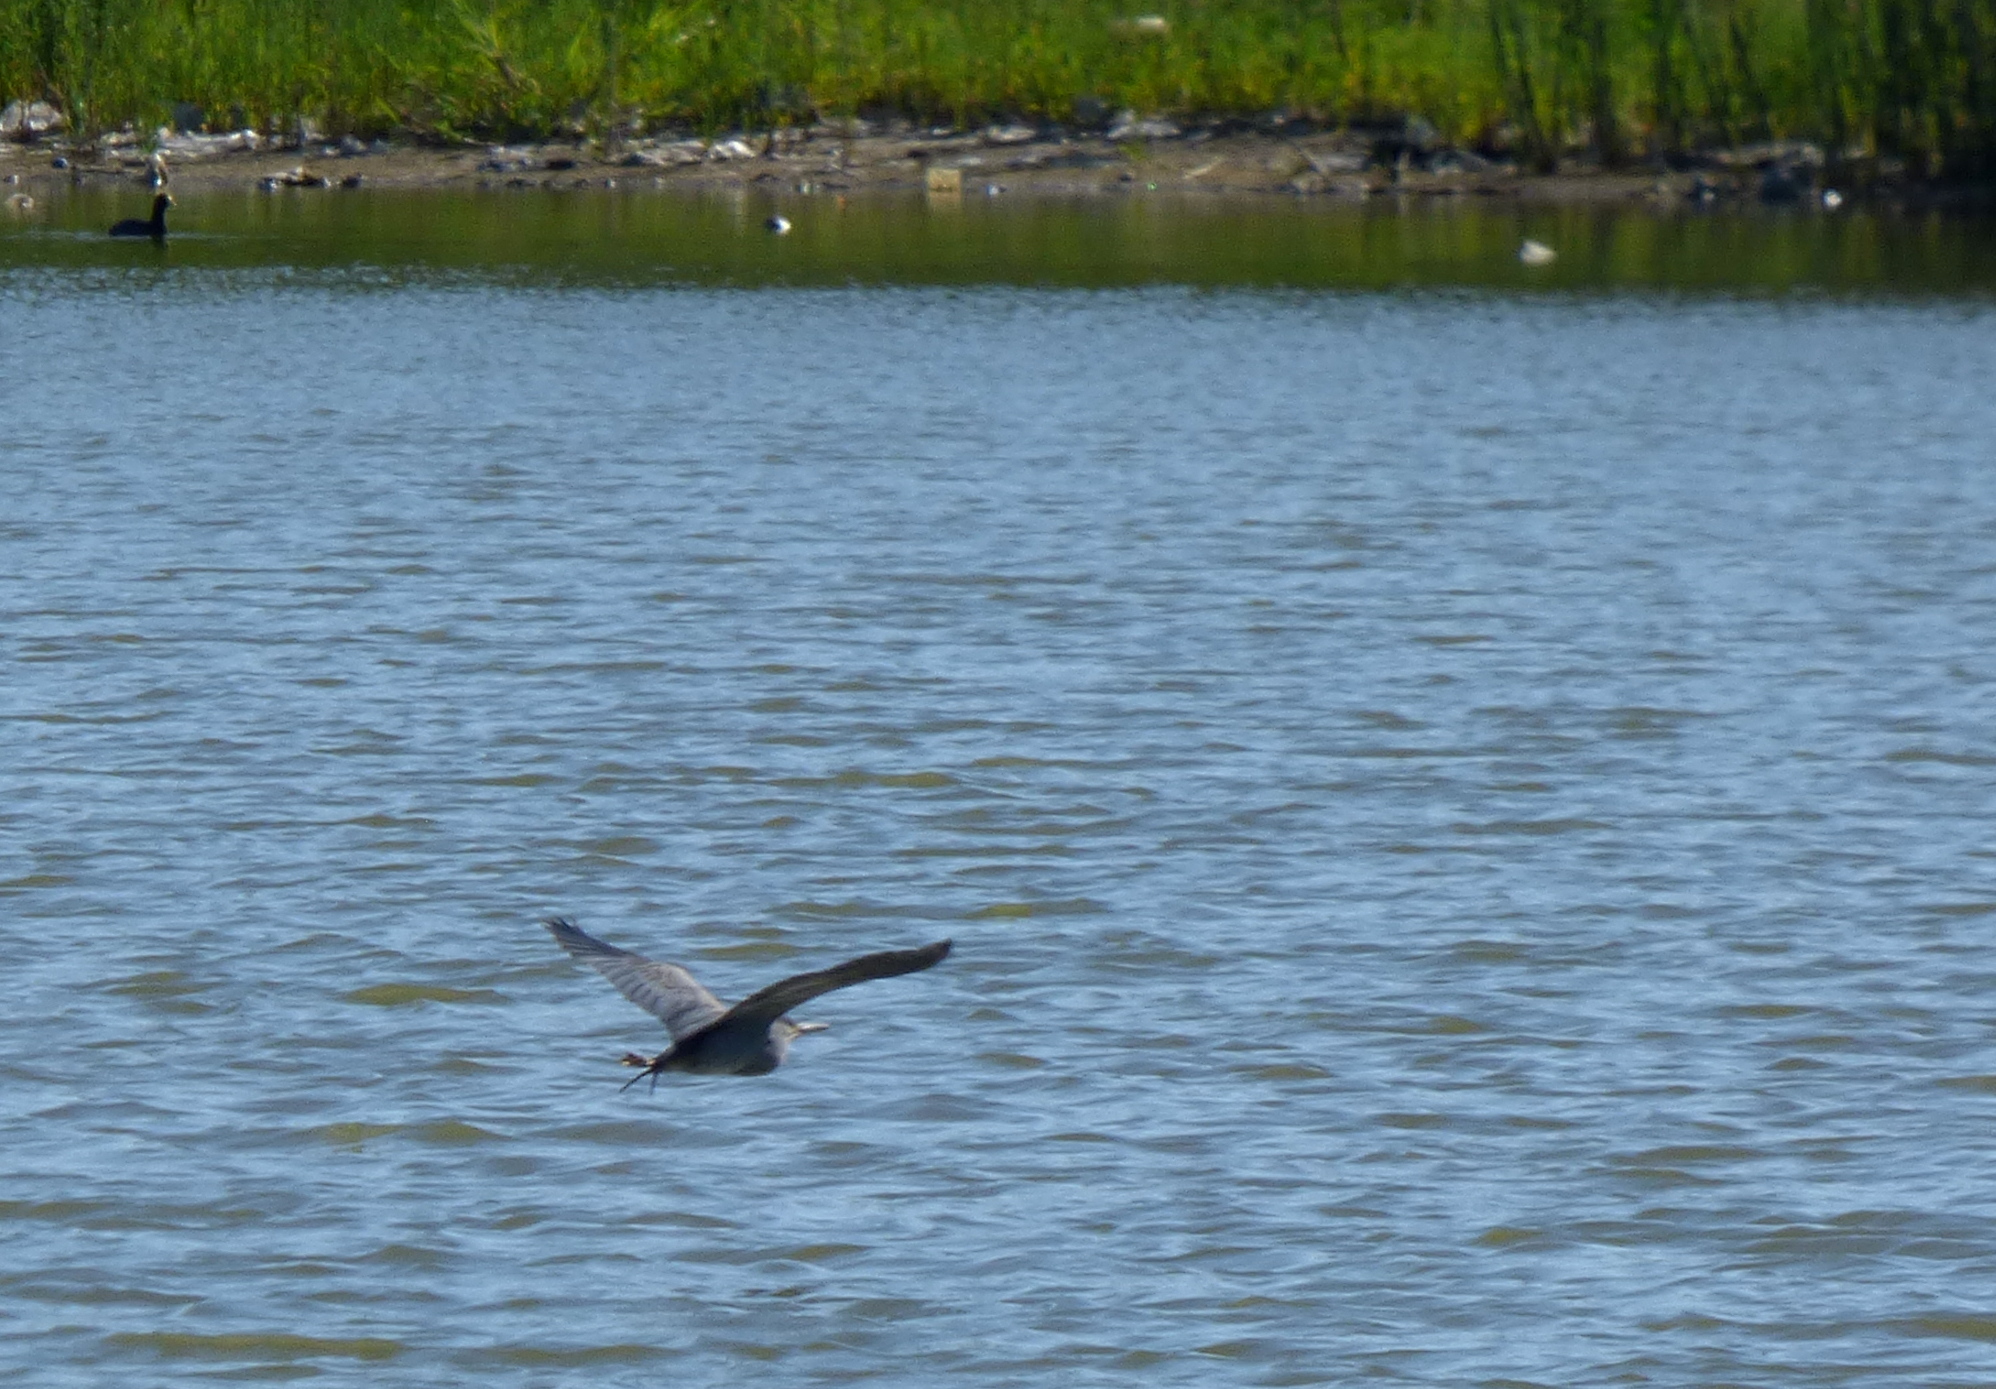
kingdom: Animalia
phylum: Chordata
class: Aves
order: Pelecaniformes
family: Ardeidae
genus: Butorides
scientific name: Butorides striata
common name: Striated heron
